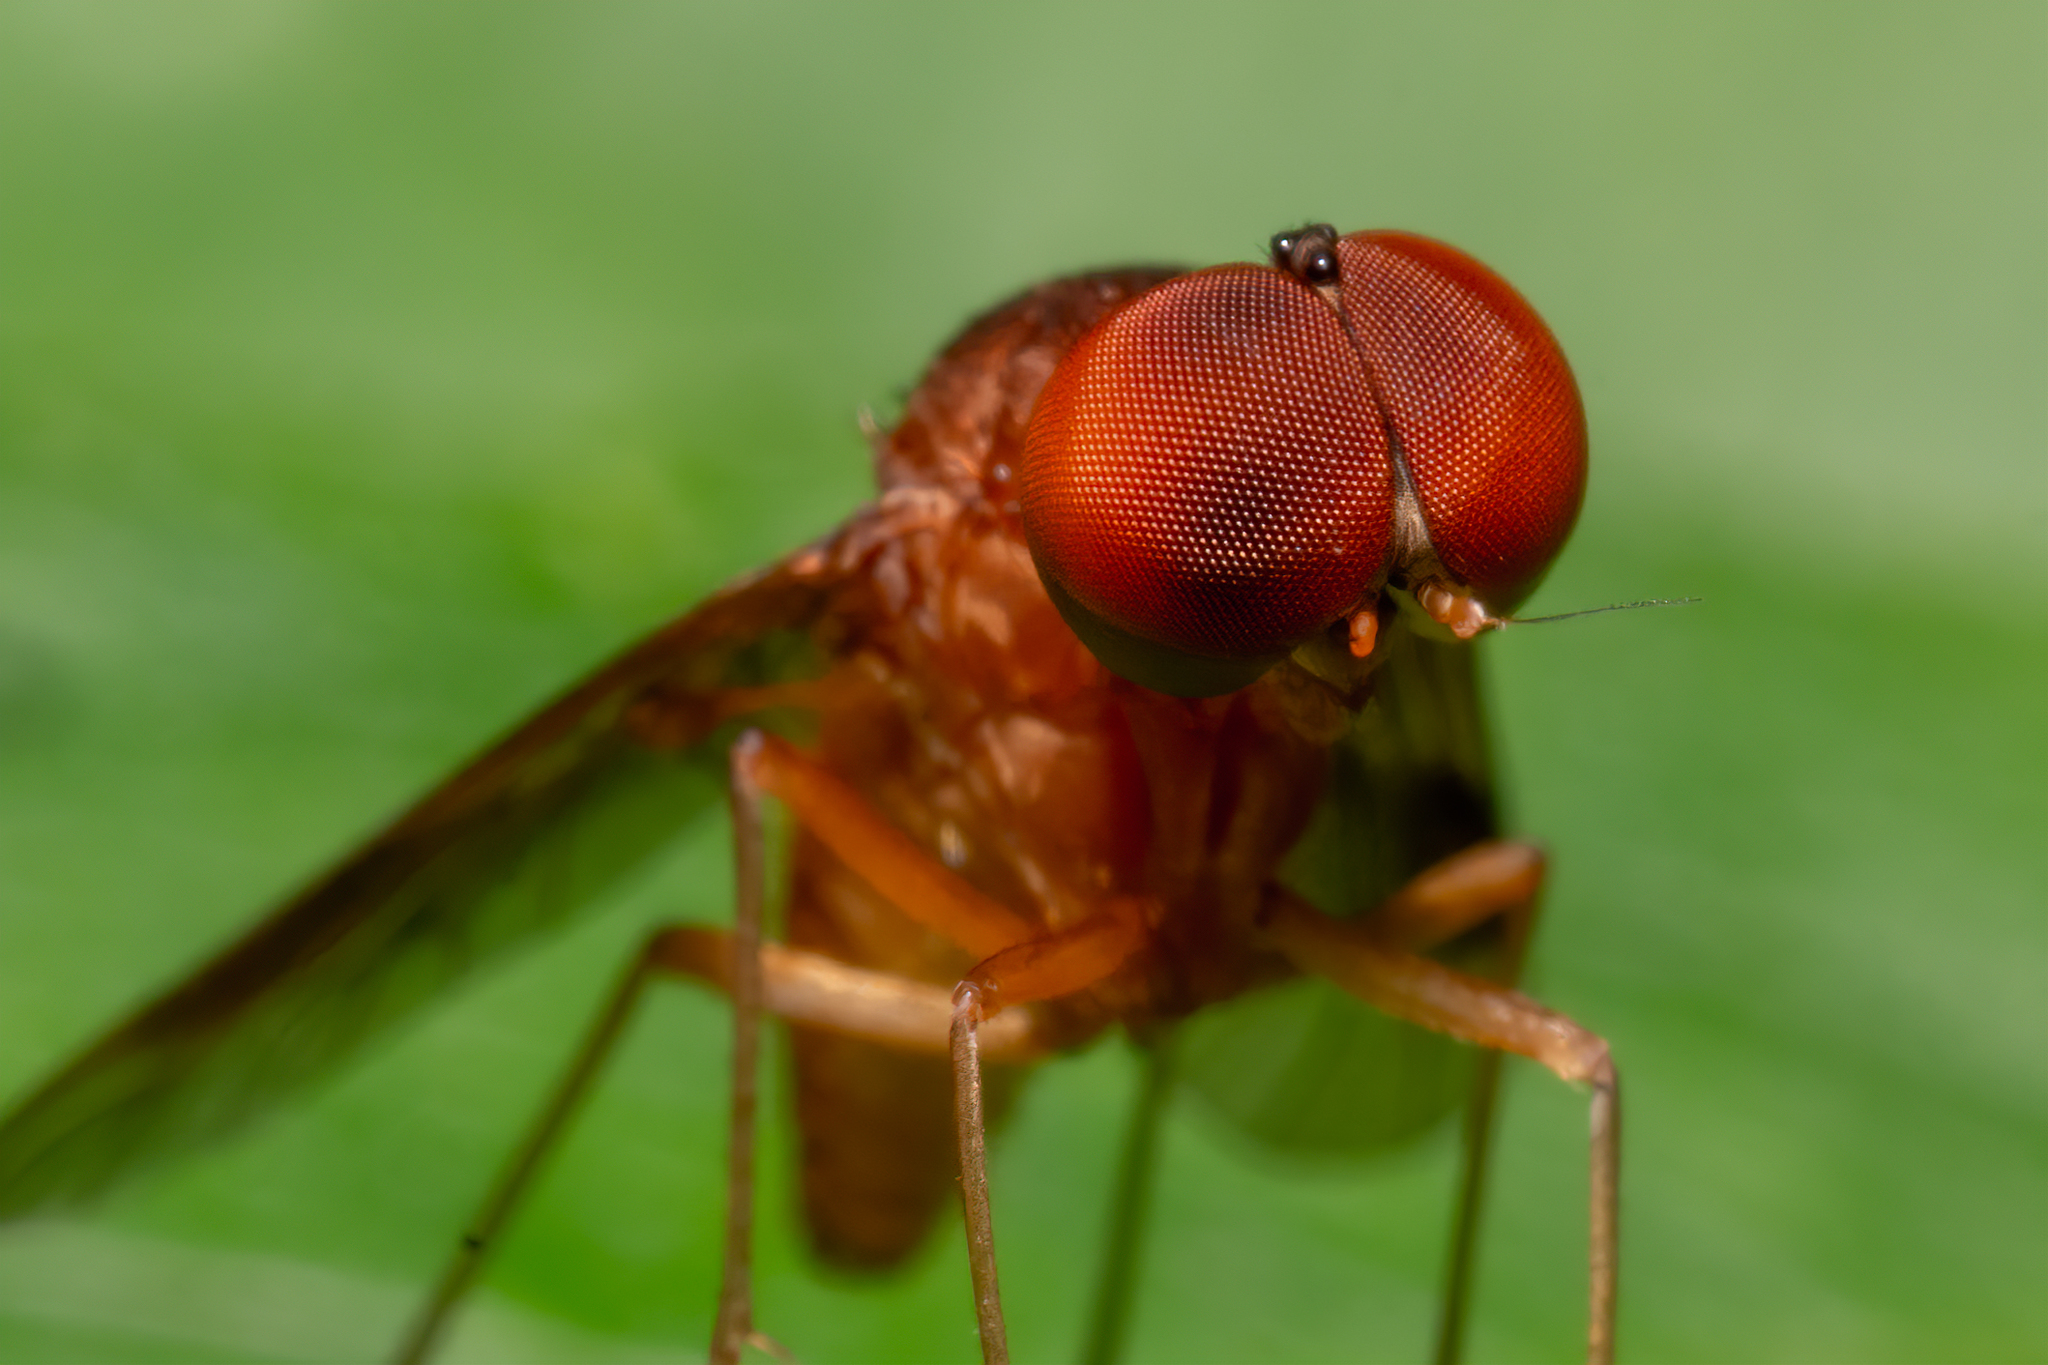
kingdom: Animalia
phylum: Arthropoda
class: Insecta
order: Diptera
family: Rhagionidae
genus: Chrysopilus
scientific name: Chrysopilus quadratus
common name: Quadrate snipe fly
